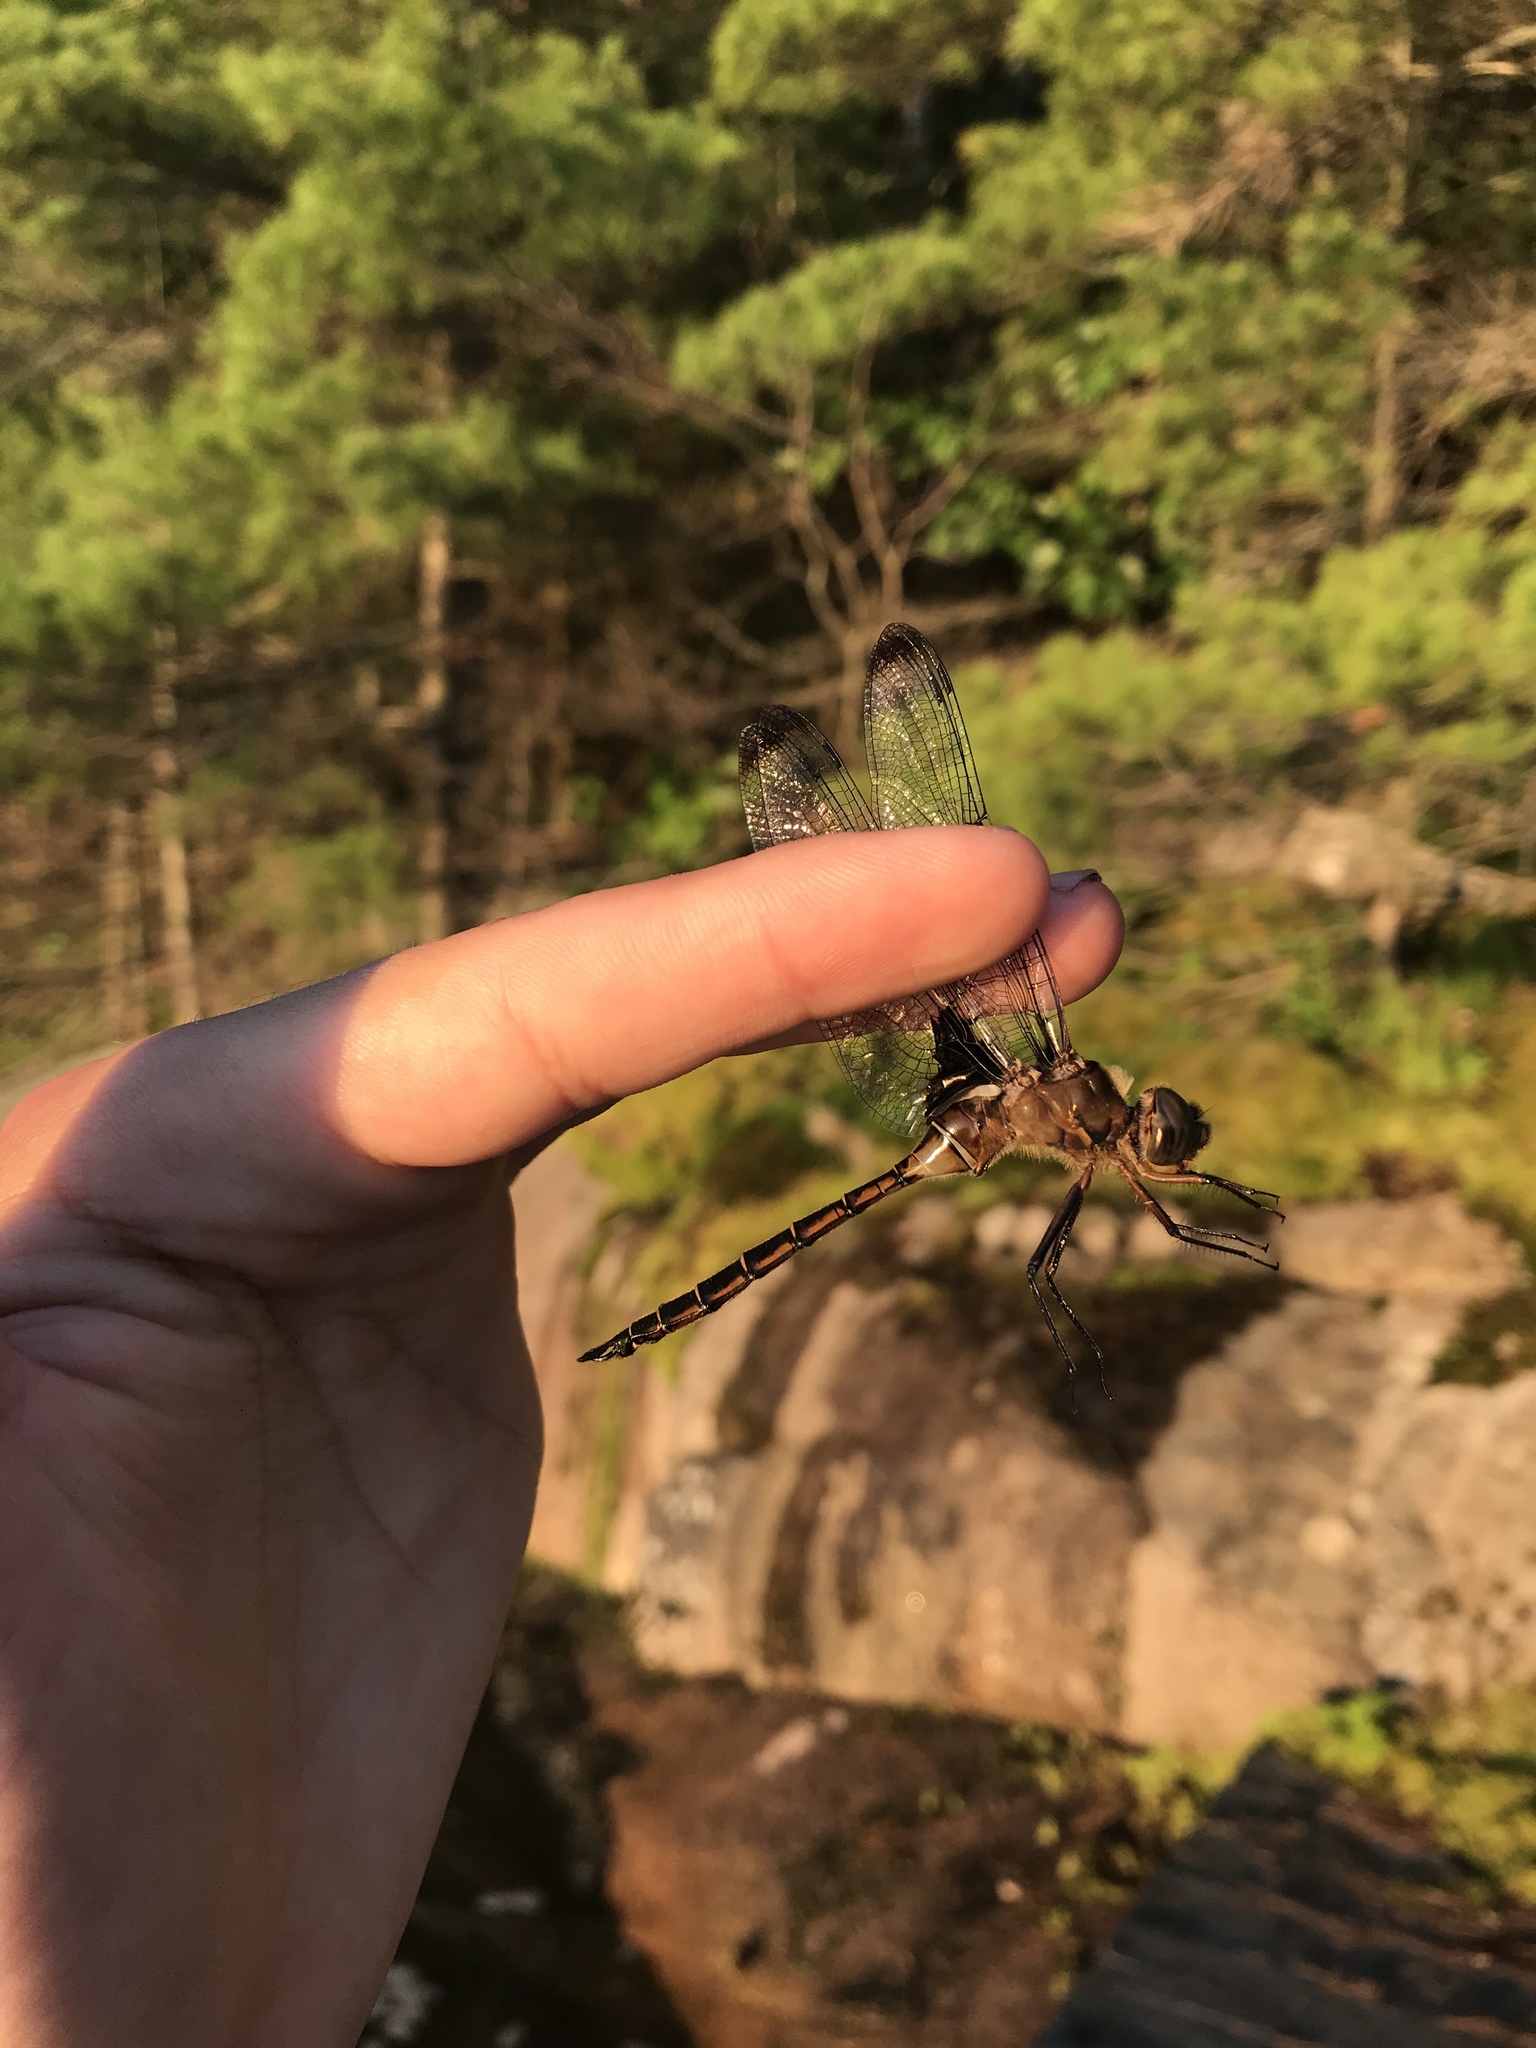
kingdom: Animalia
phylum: Arthropoda
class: Insecta
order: Odonata
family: Corduliidae
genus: Epitheca
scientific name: Epitheca princeps
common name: Prince baskettail
